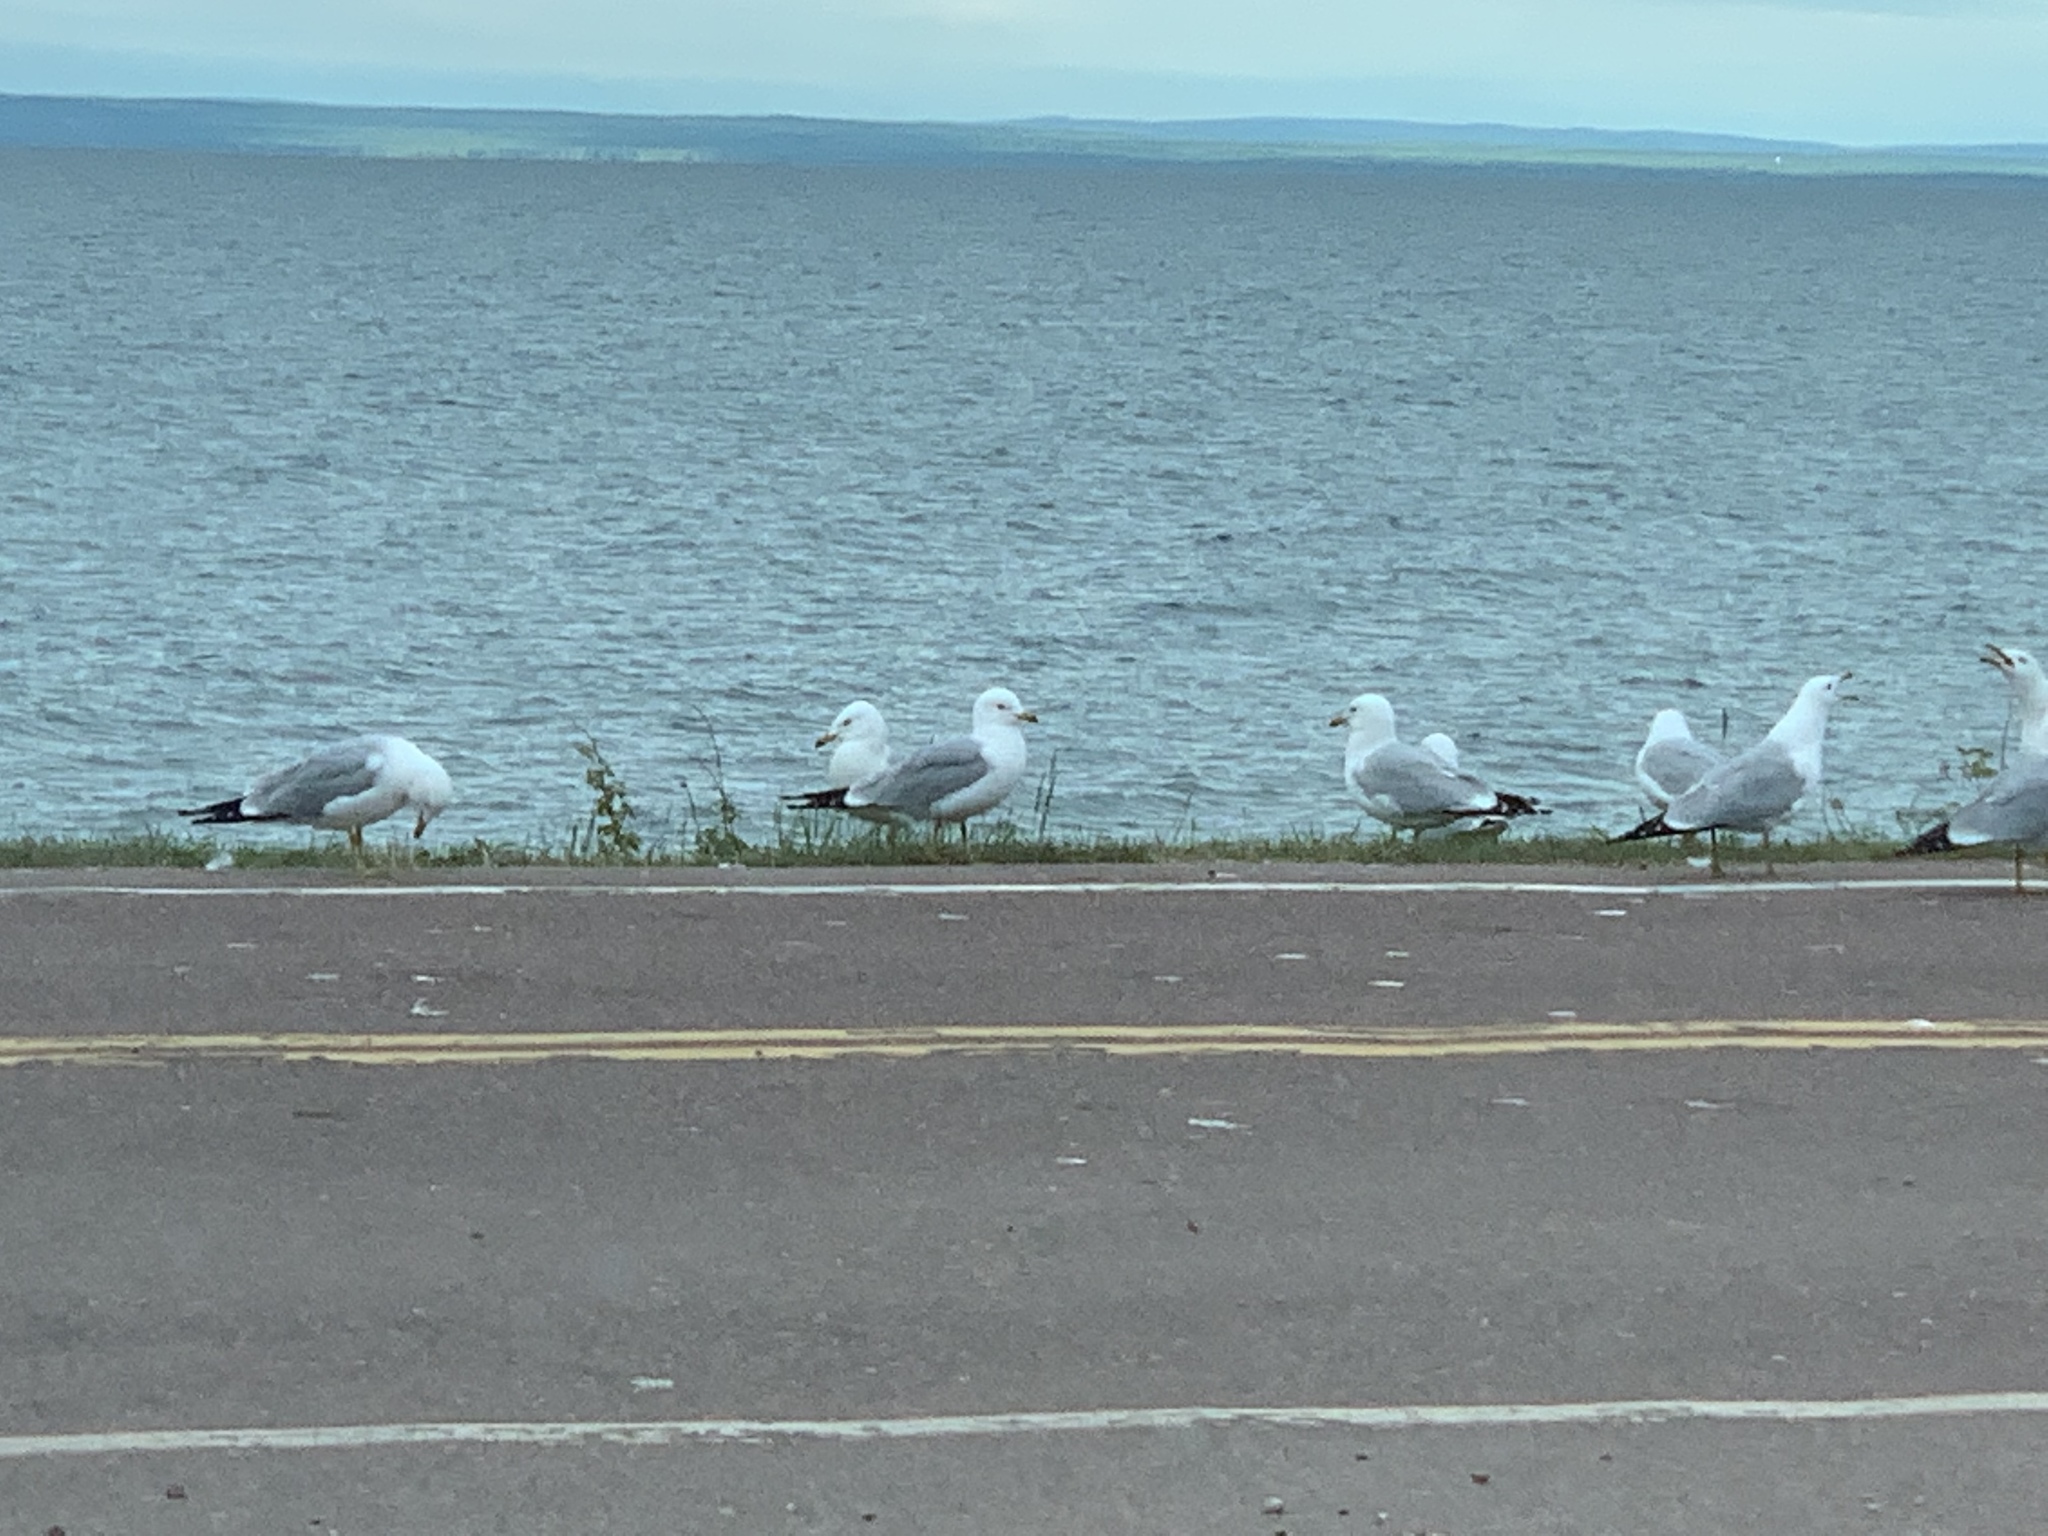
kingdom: Animalia
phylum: Chordata
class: Aves
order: Charadriiformes
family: Laridae
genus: Larus
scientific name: Larus delawarensis
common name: Ring-billed gull
